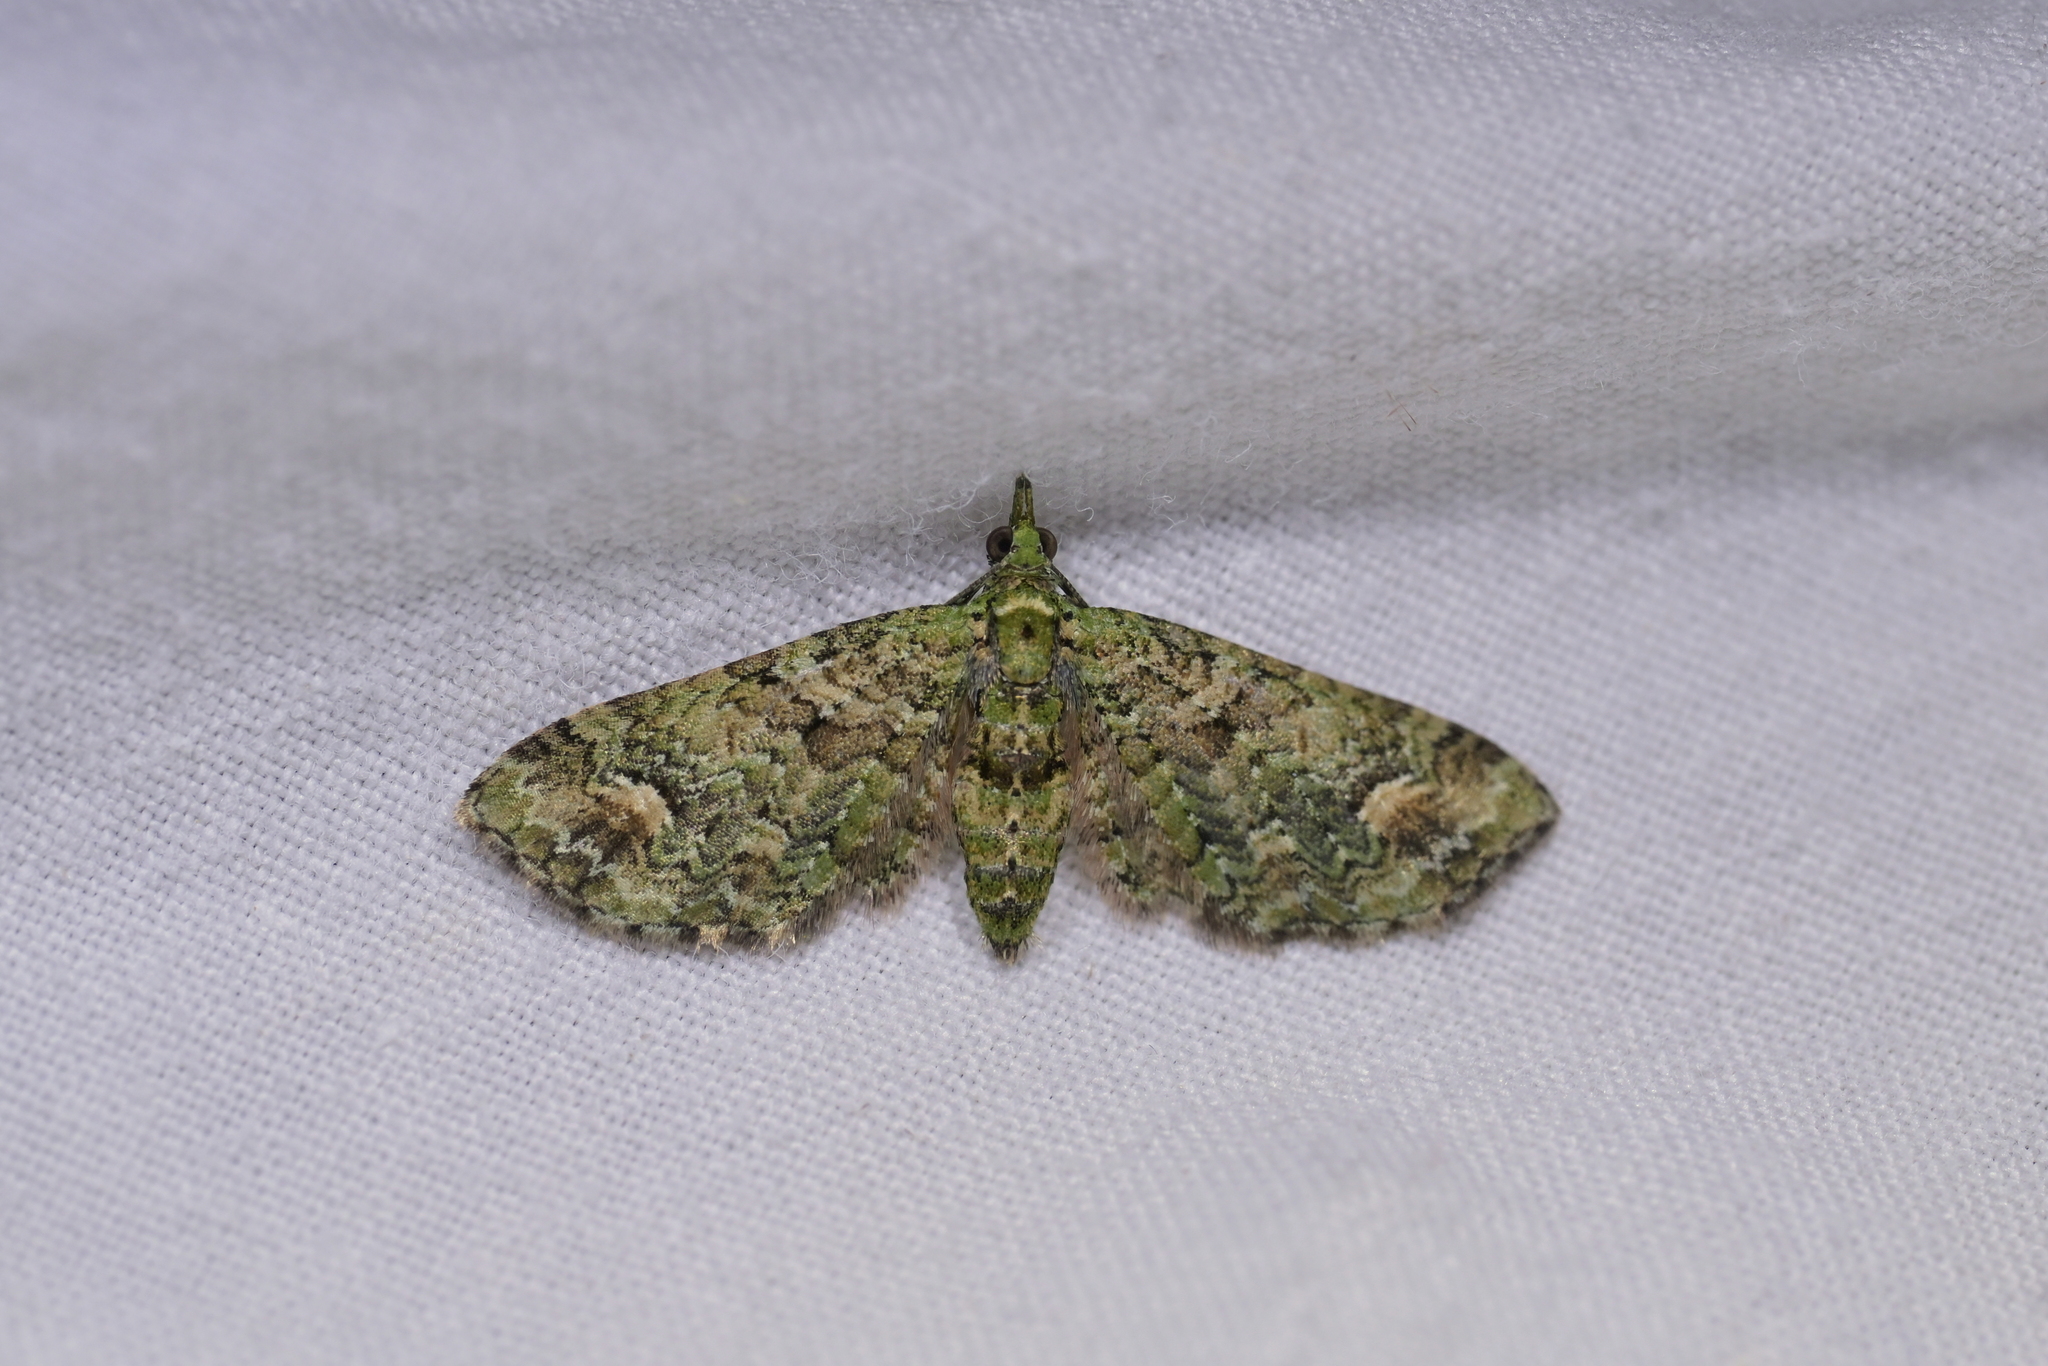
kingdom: Animalia
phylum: Arthropoda
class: Insecta
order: Lepidoptera
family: Geometridae
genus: Idaea
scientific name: Idaea mutanda
